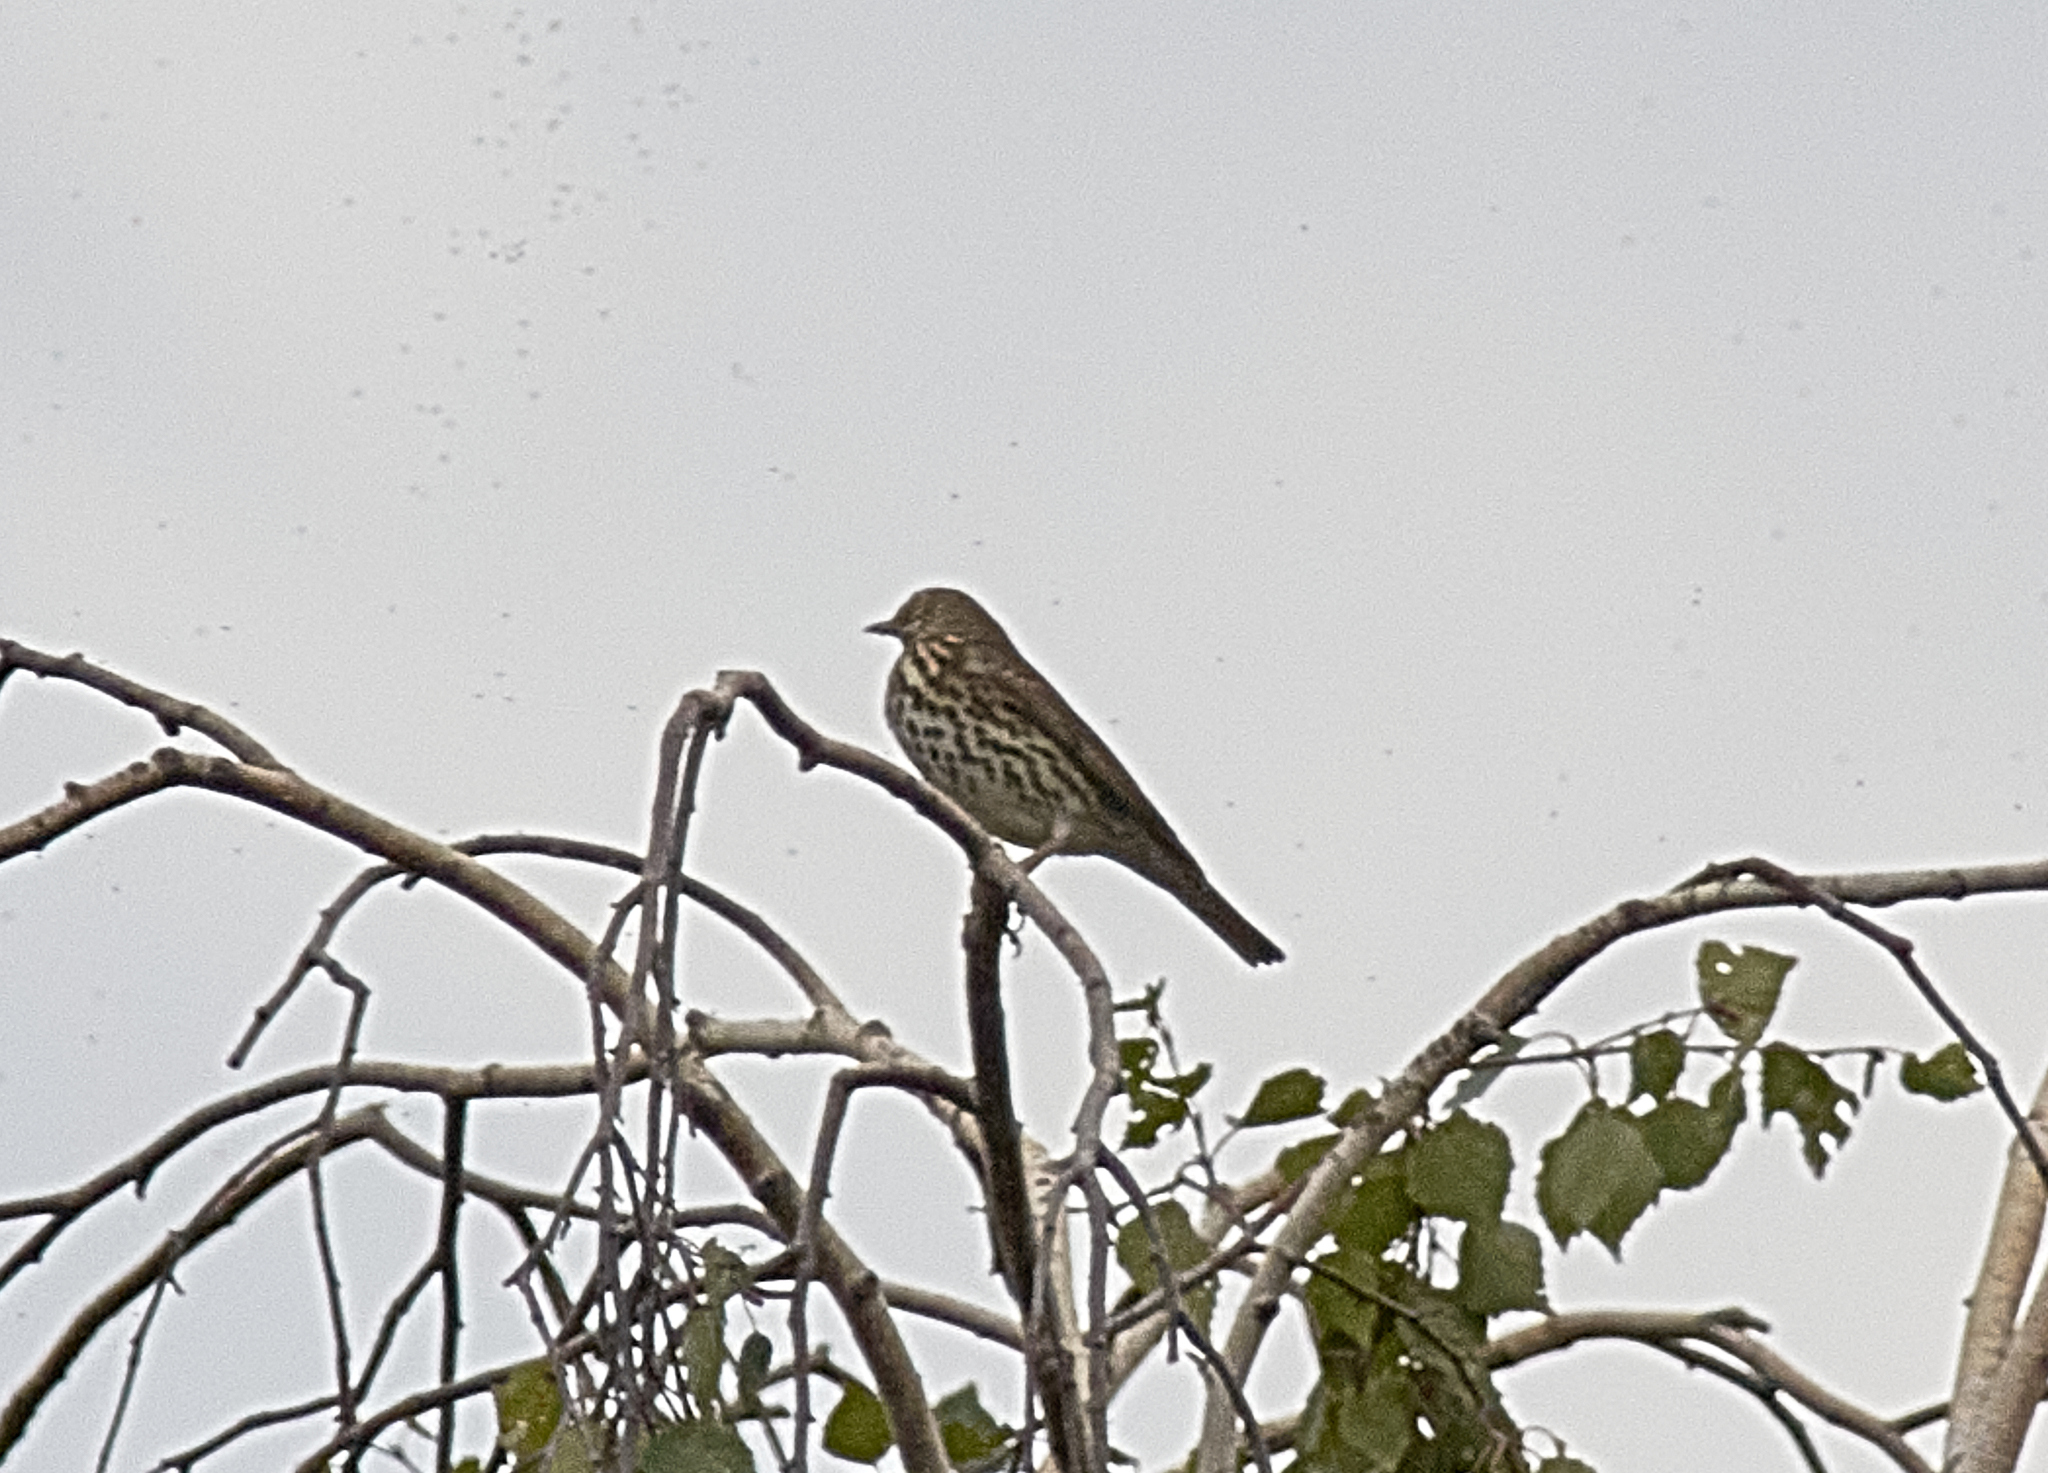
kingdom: Animalia
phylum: Chordata
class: Aves
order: Passeriformes
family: Turdidae
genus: Turdus
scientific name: Turdus philomelos
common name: Song thrush
